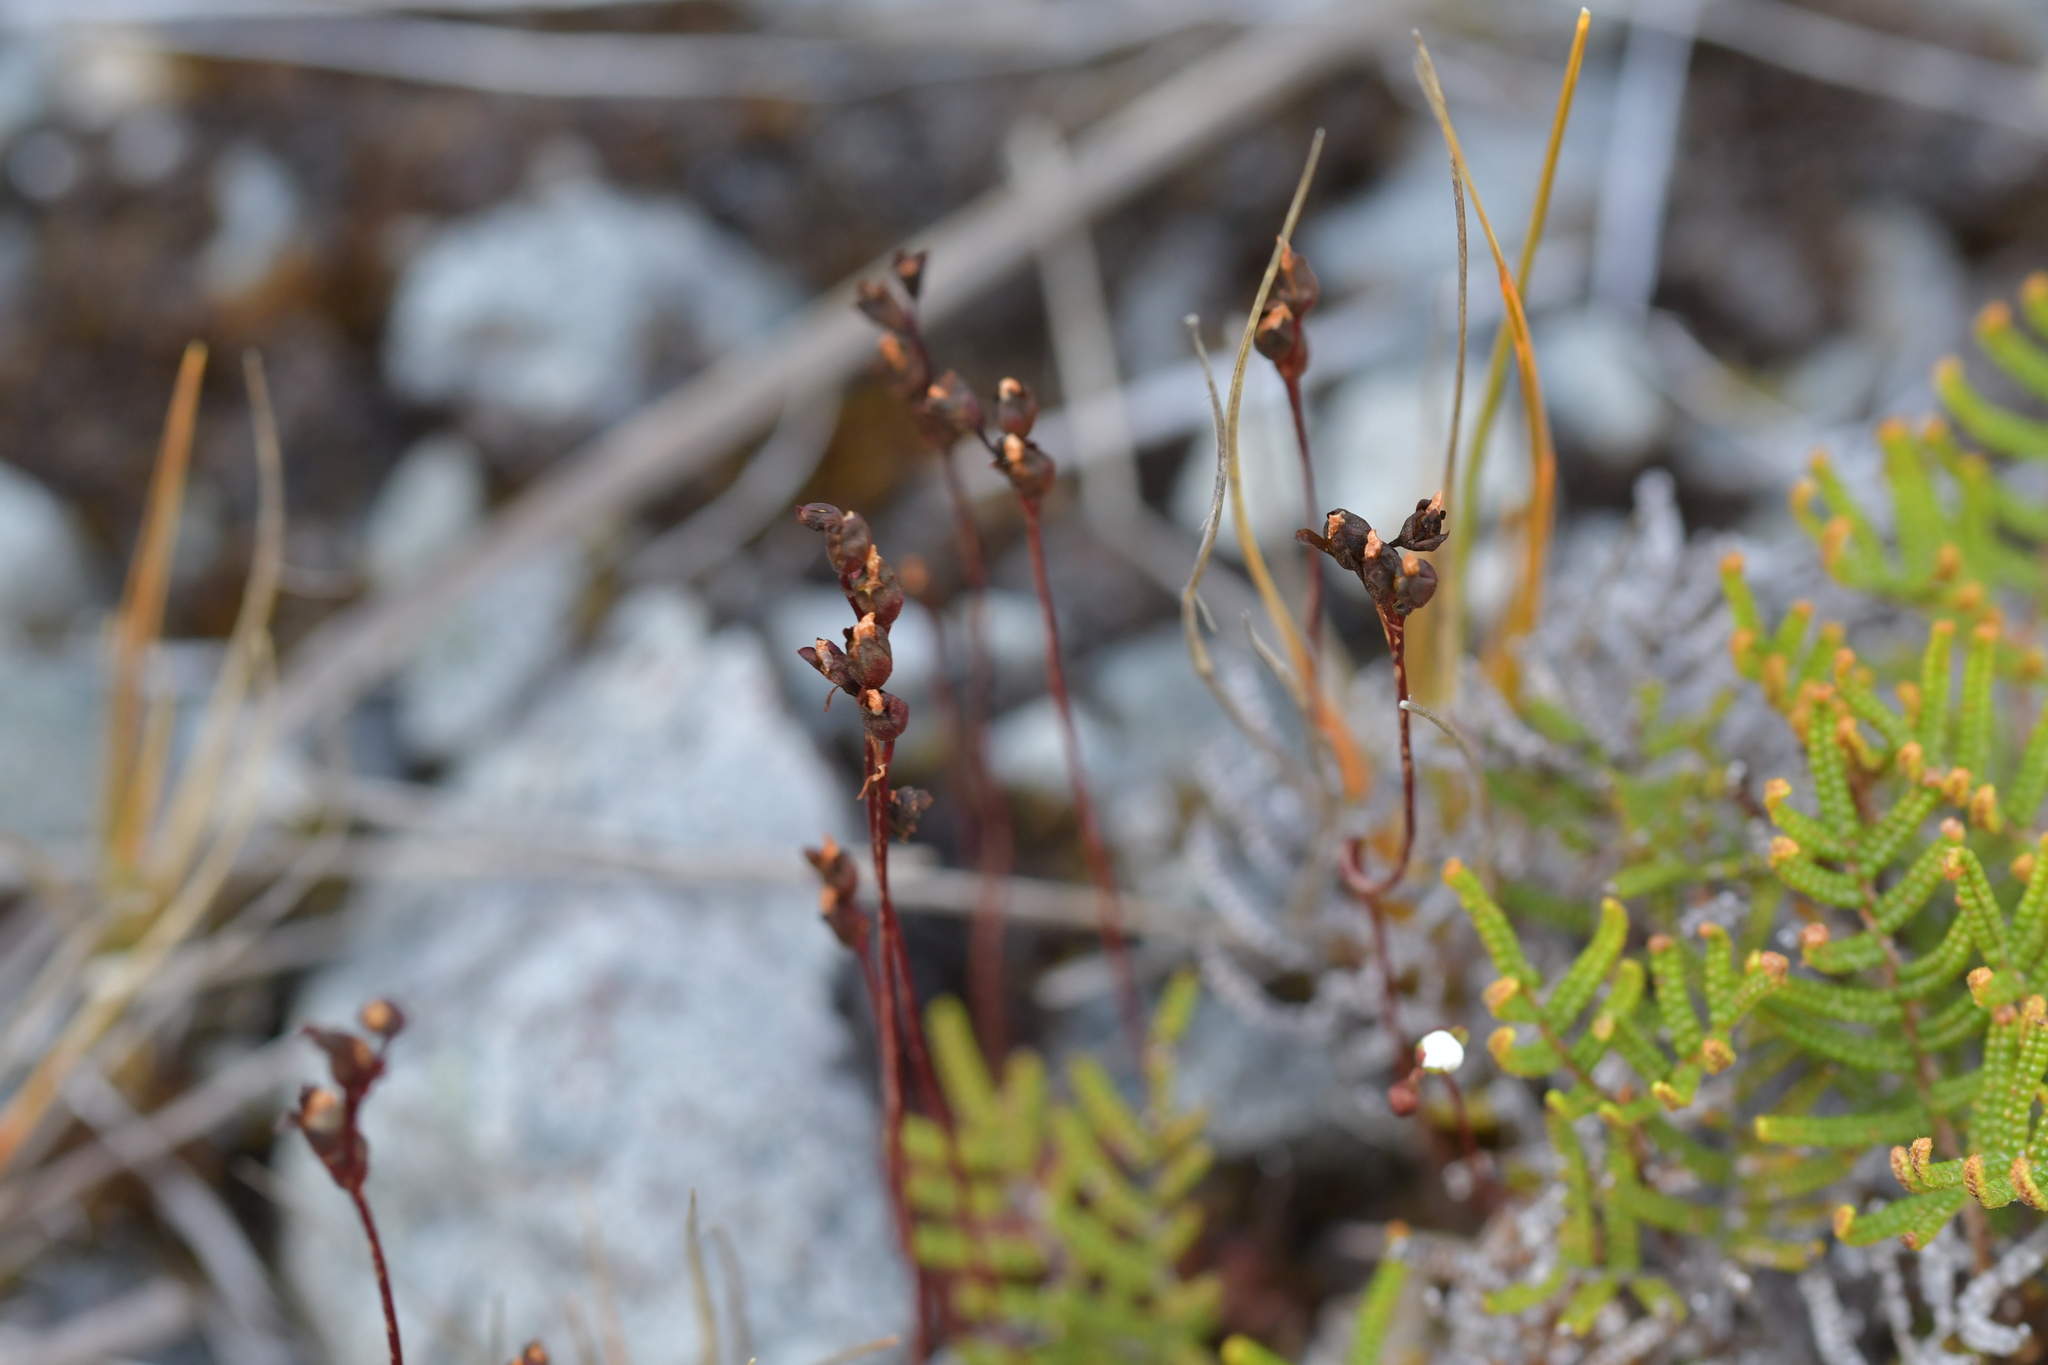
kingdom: Plantae
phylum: Tracheophyta
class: Magnoliopsida
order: Caryophyllales
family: Droseraceae
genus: Drosera
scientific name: Drosera spatulata
